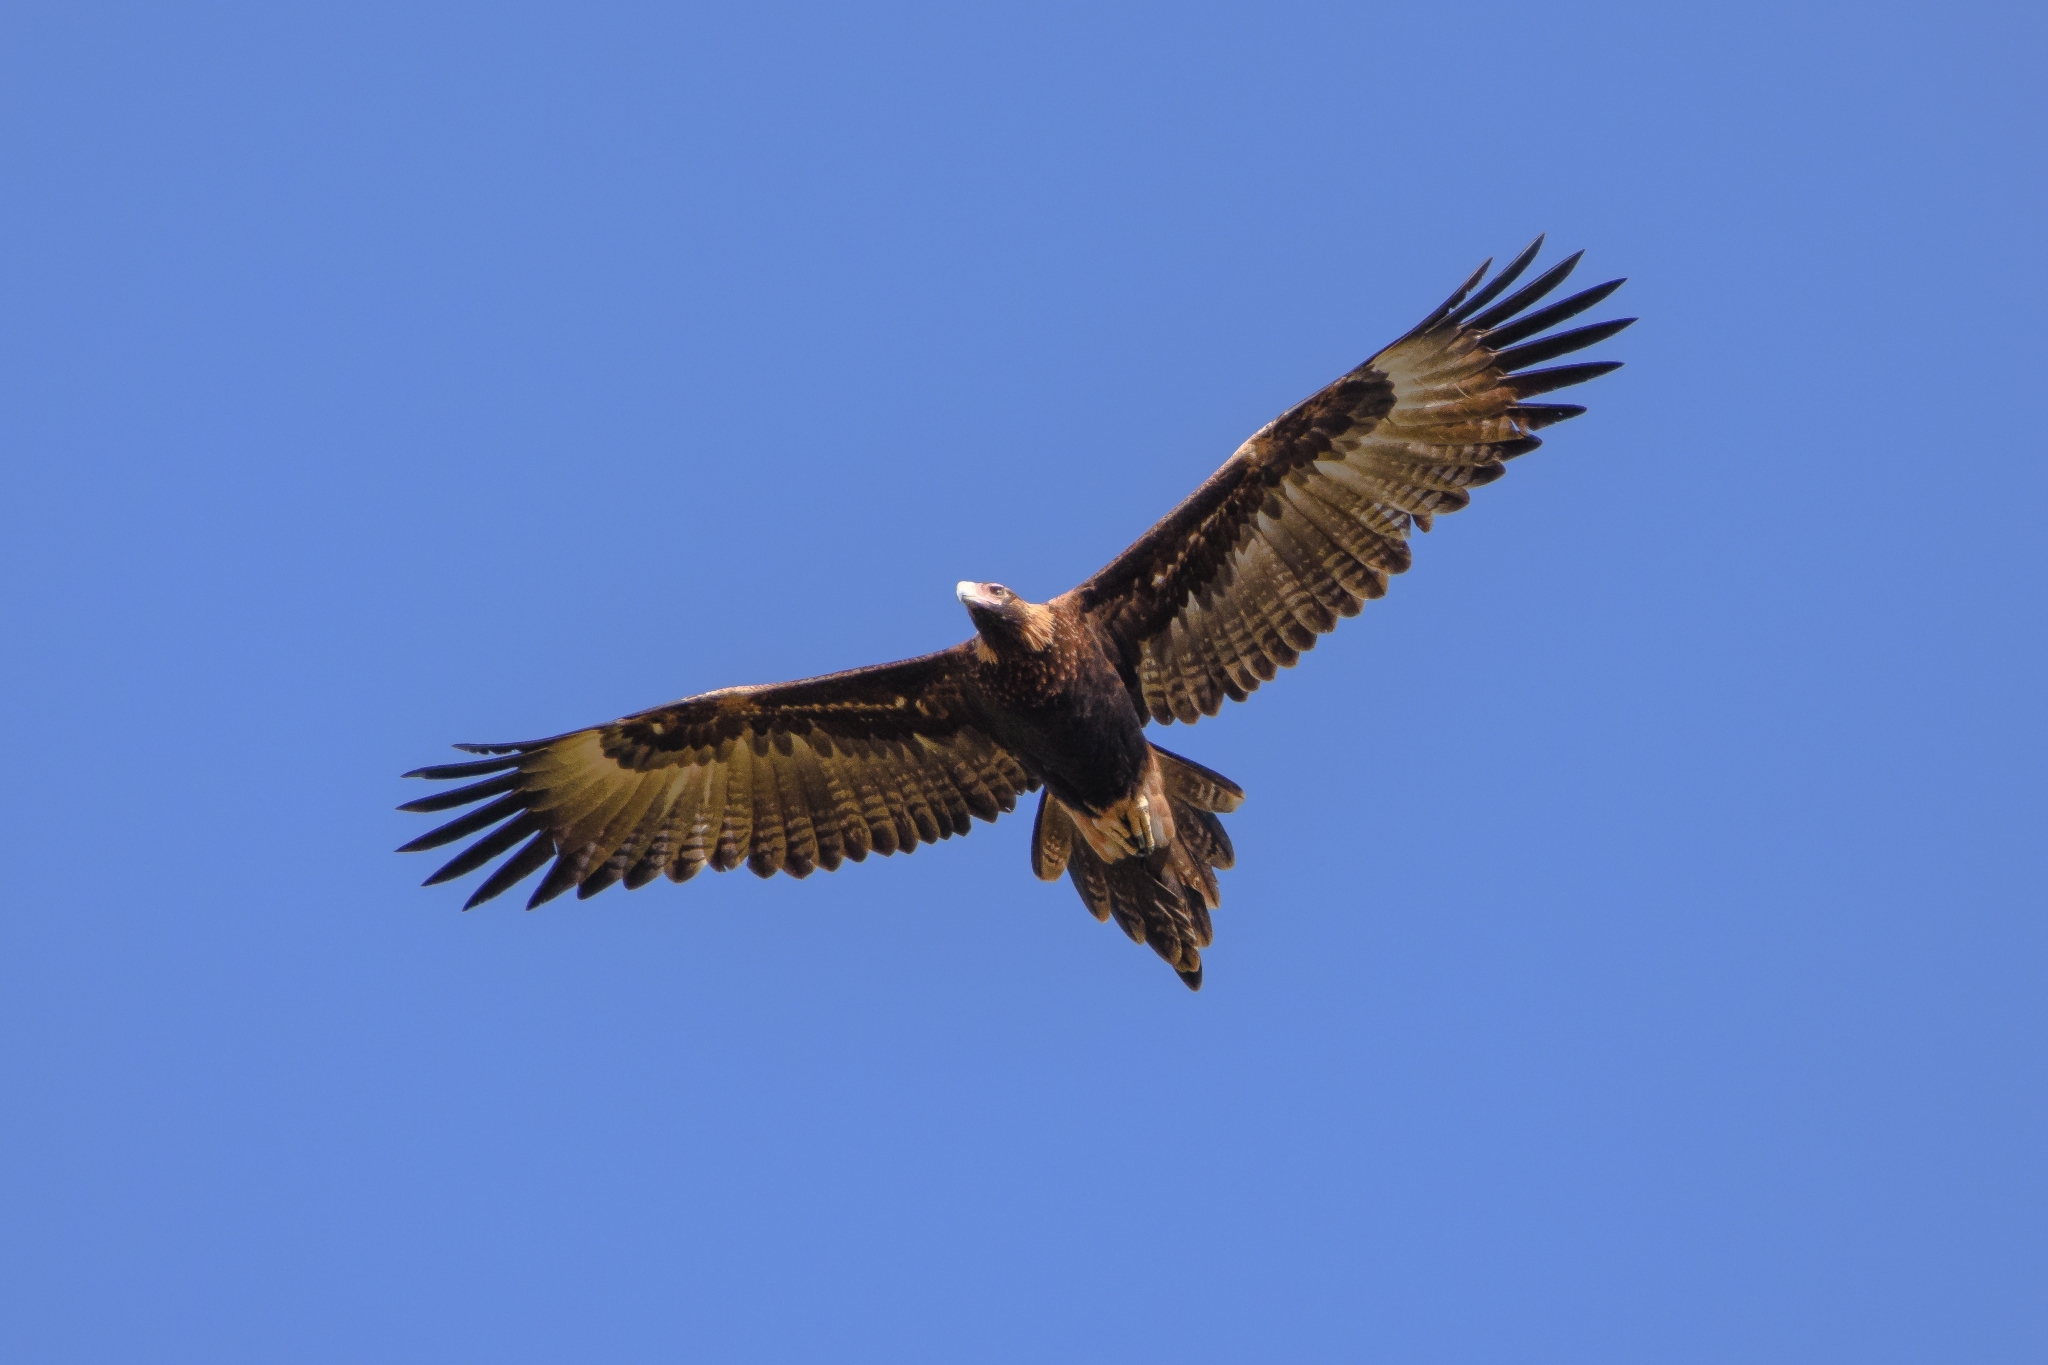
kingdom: Animalia
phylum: Chordata
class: Aves
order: Accipitriformes
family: Accipitridae
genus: Aquila
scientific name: Aquila audax
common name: Wedge-tailed eagle
